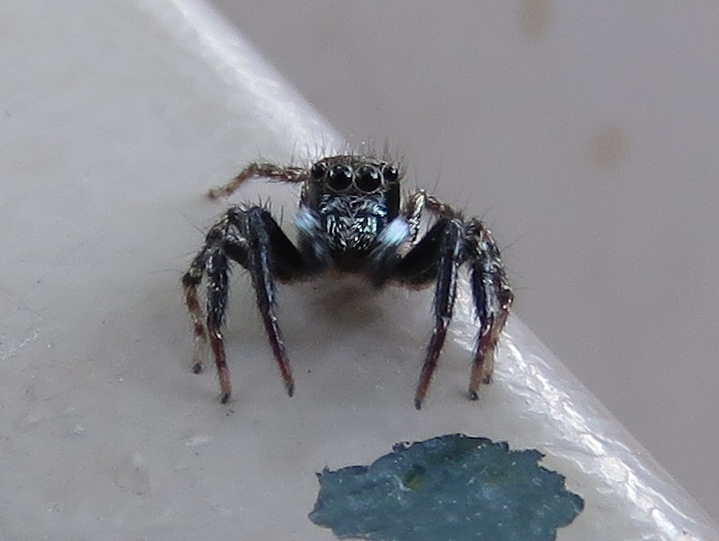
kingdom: Animalia
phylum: Arthropoda
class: Arachnida
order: Araneae
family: Salticidae
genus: Anasaitis
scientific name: Anasaitis canosa
